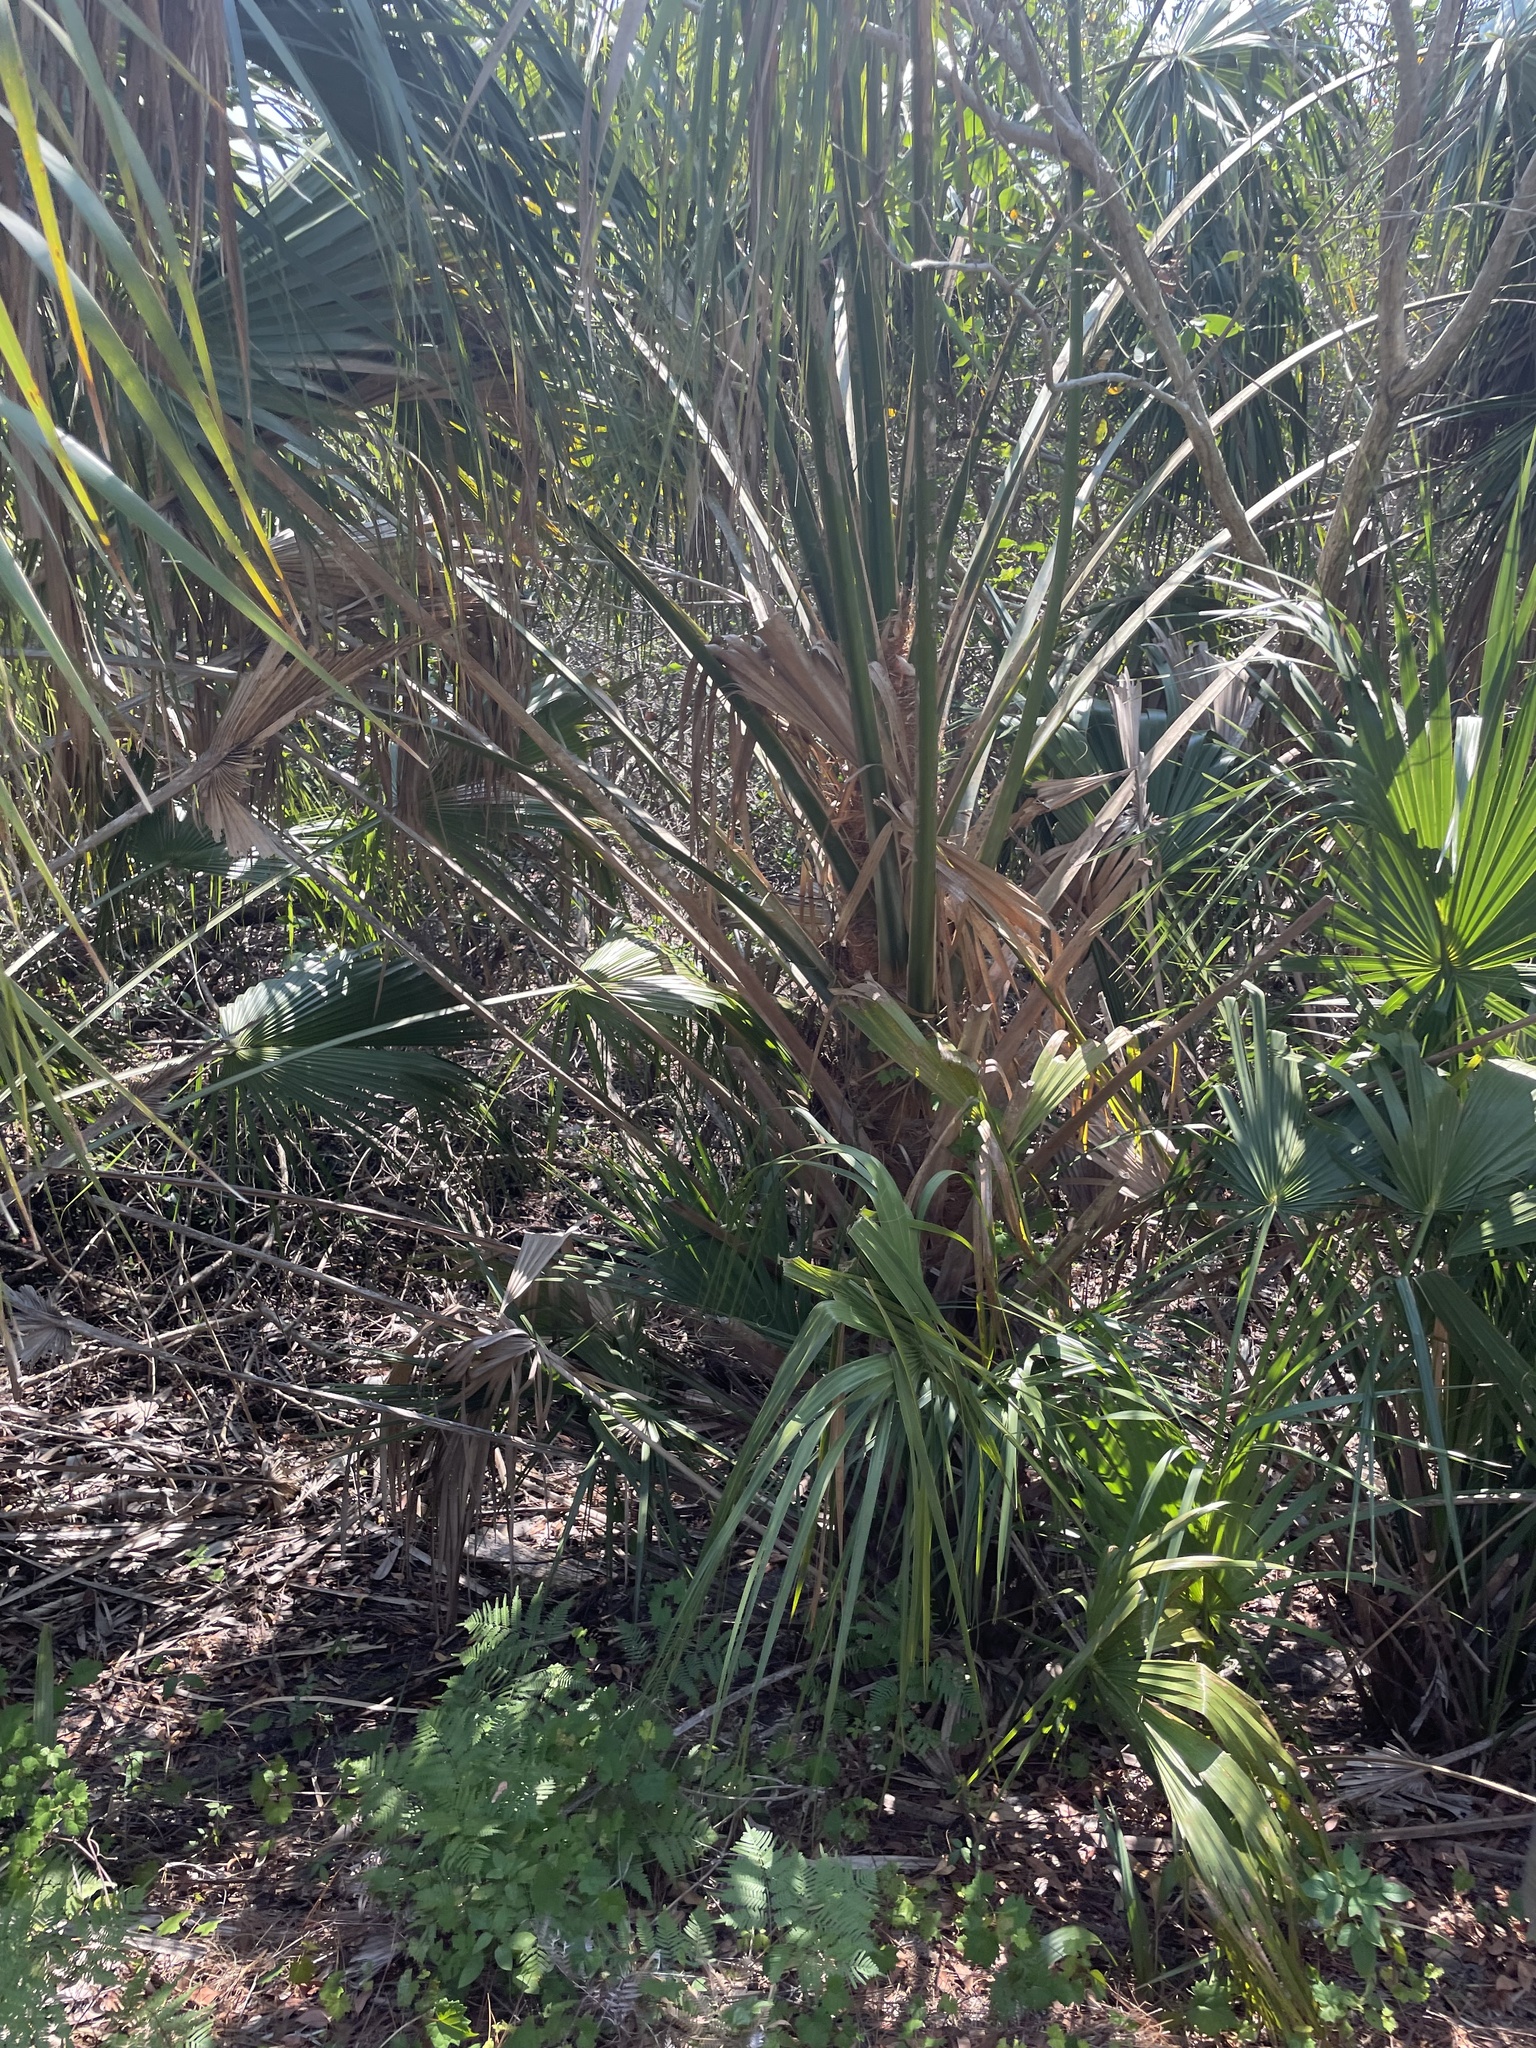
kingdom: Plantae
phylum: Tracheophyta
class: Liliopsida
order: Arecales
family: Arecaceae
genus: Sabal
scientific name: Sabal palmetto
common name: Blue palmetto
